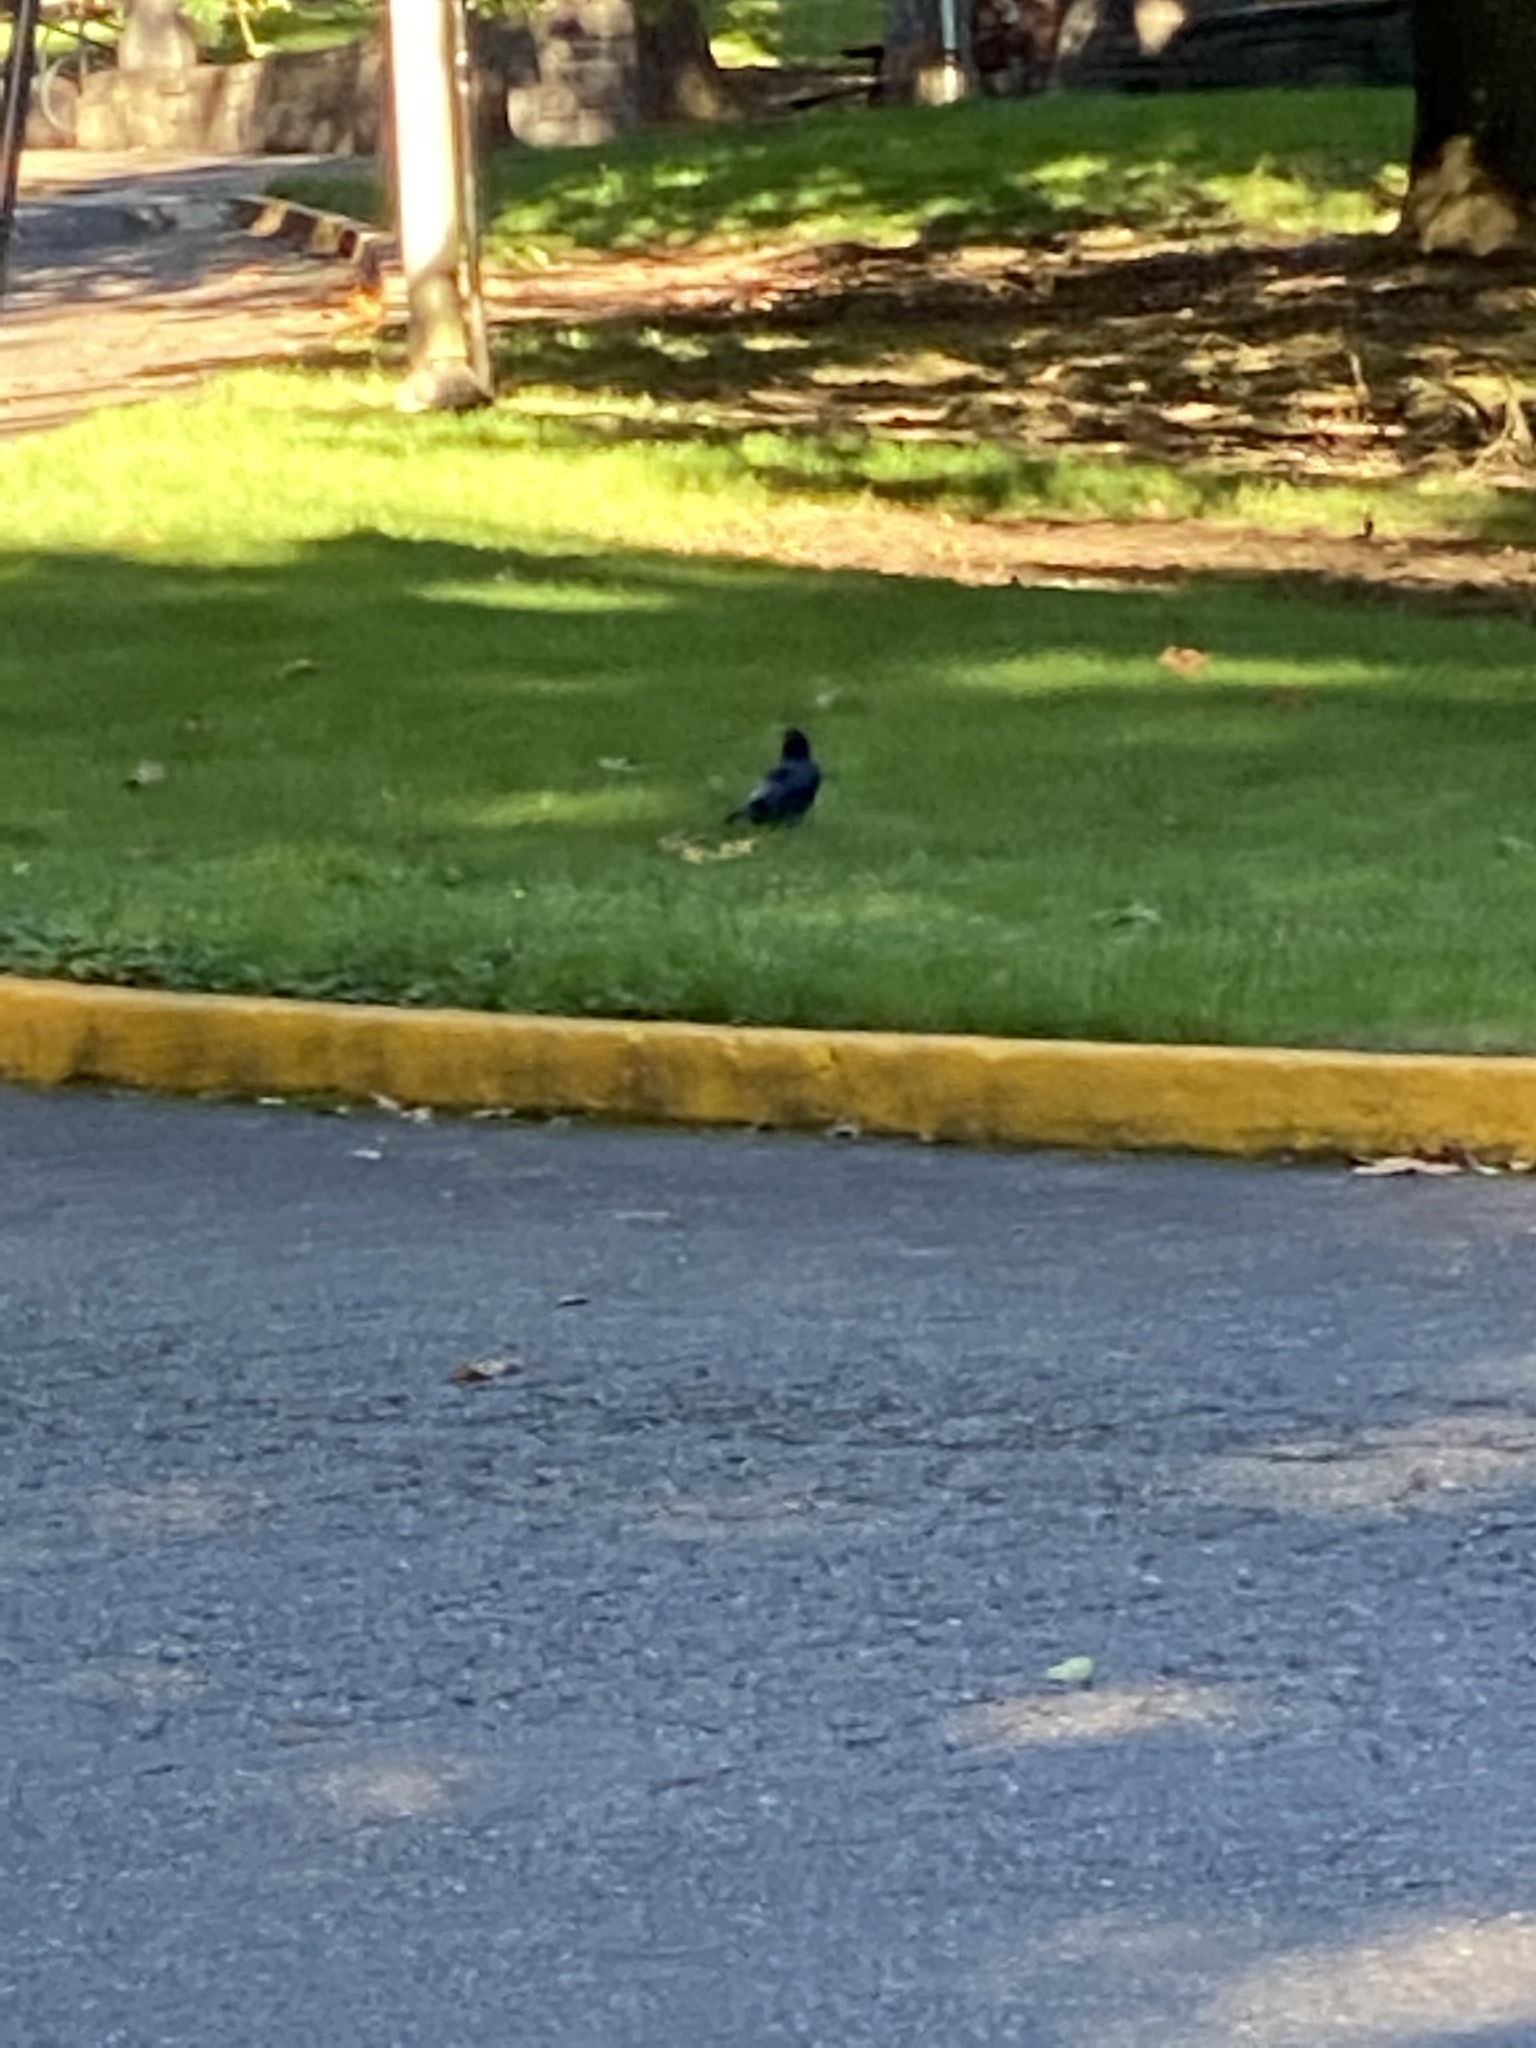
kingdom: Animalia
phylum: Chordata
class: Aves
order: Passeriformes
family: Corvidae
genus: Corvus
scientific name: Corvus brachyrhynchos
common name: American crow
